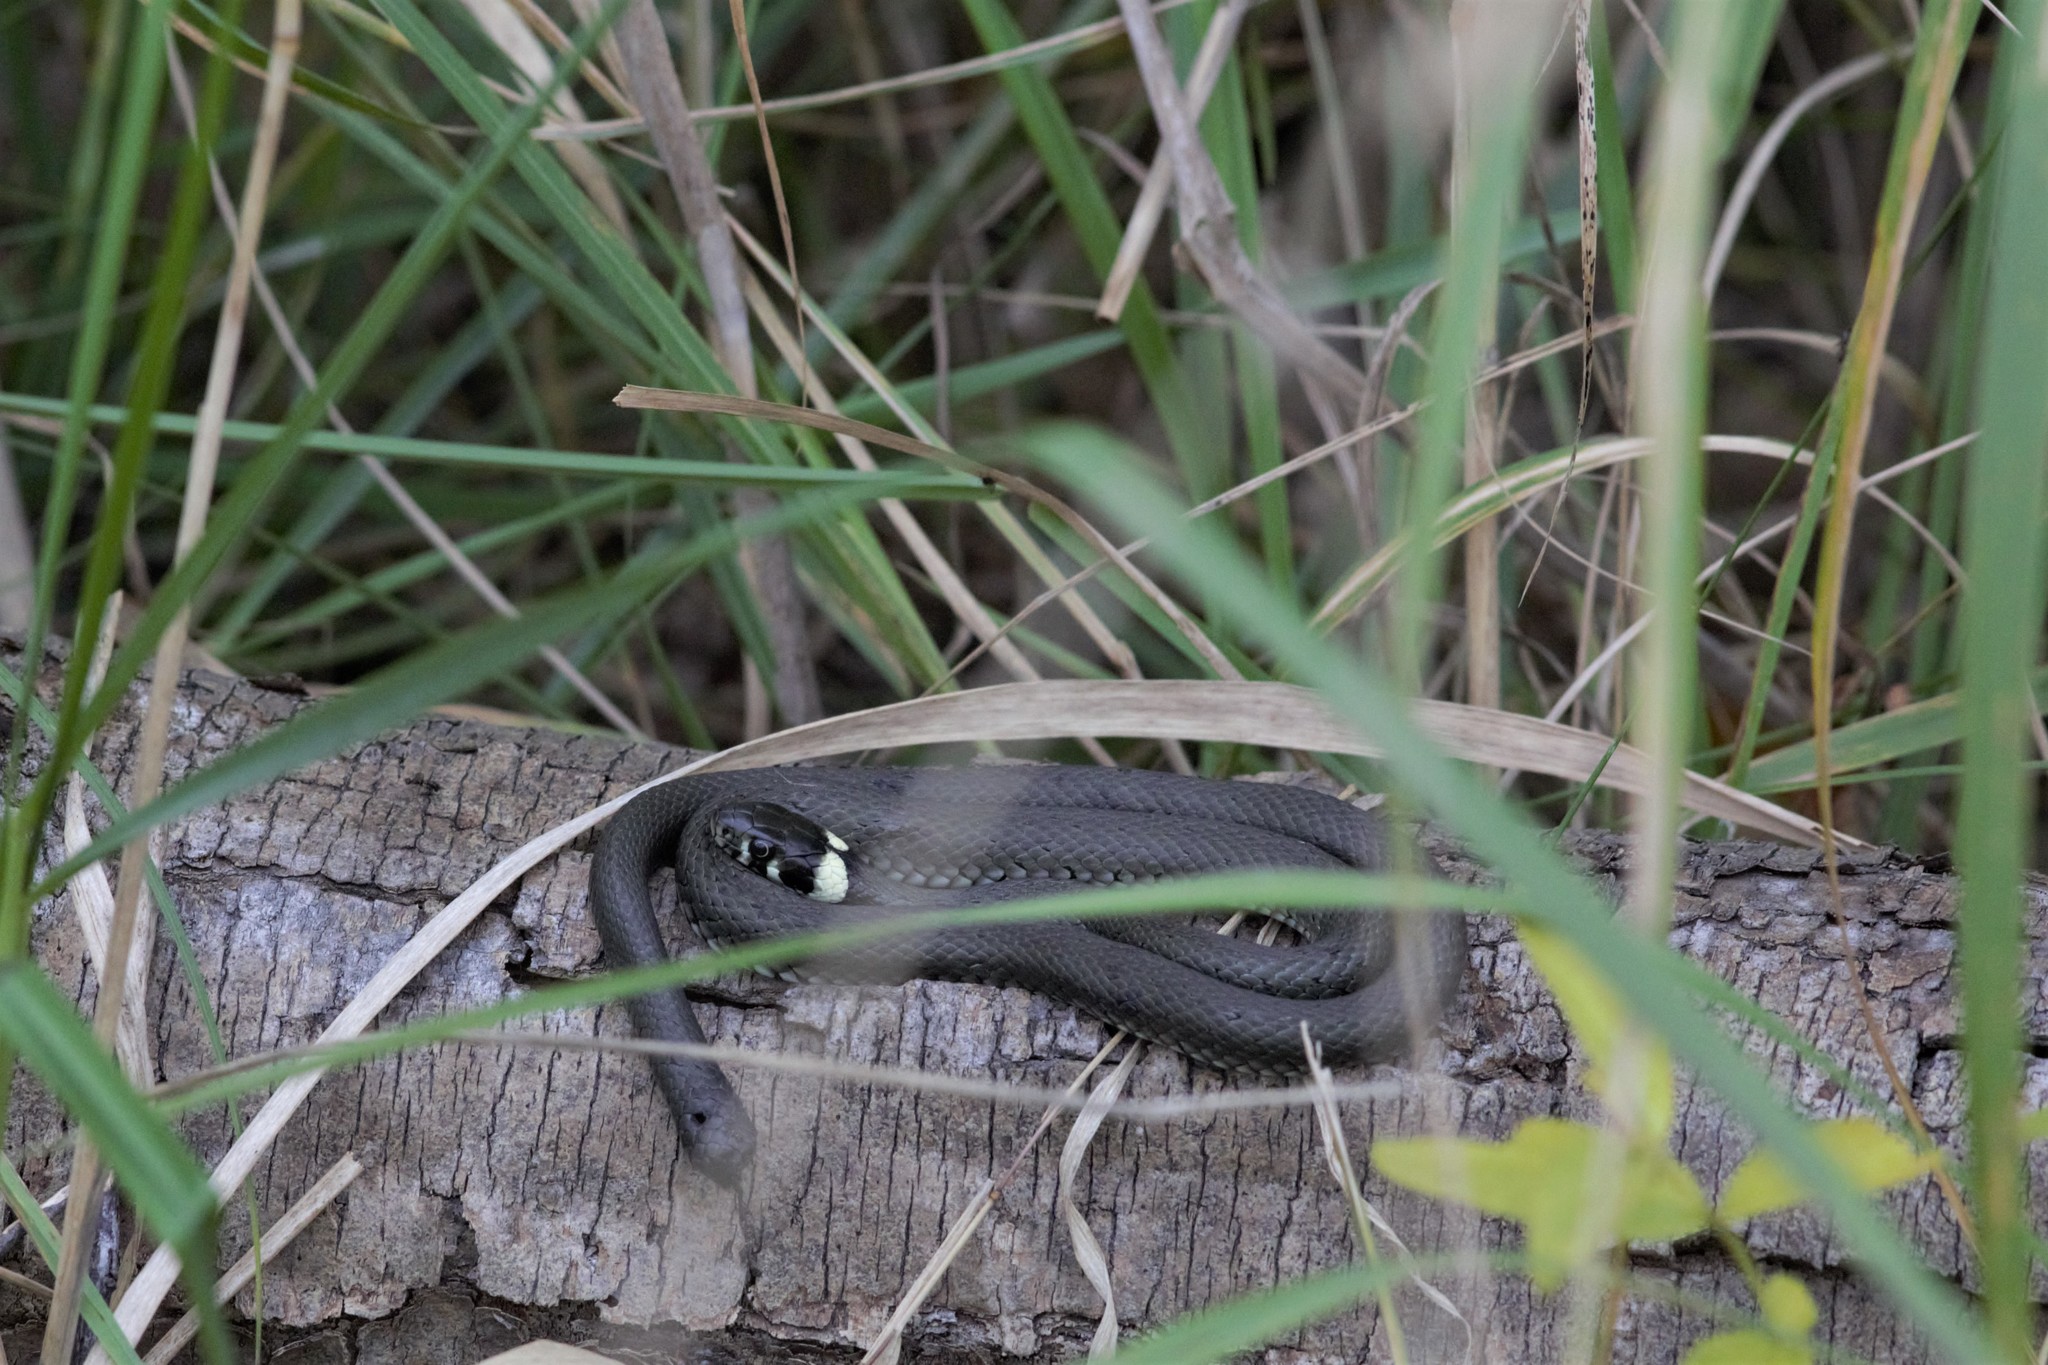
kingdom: Animalia
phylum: Chordata
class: Squamata
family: Colubridae
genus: Natrix
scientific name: Natrix natrix
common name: Grass snake
